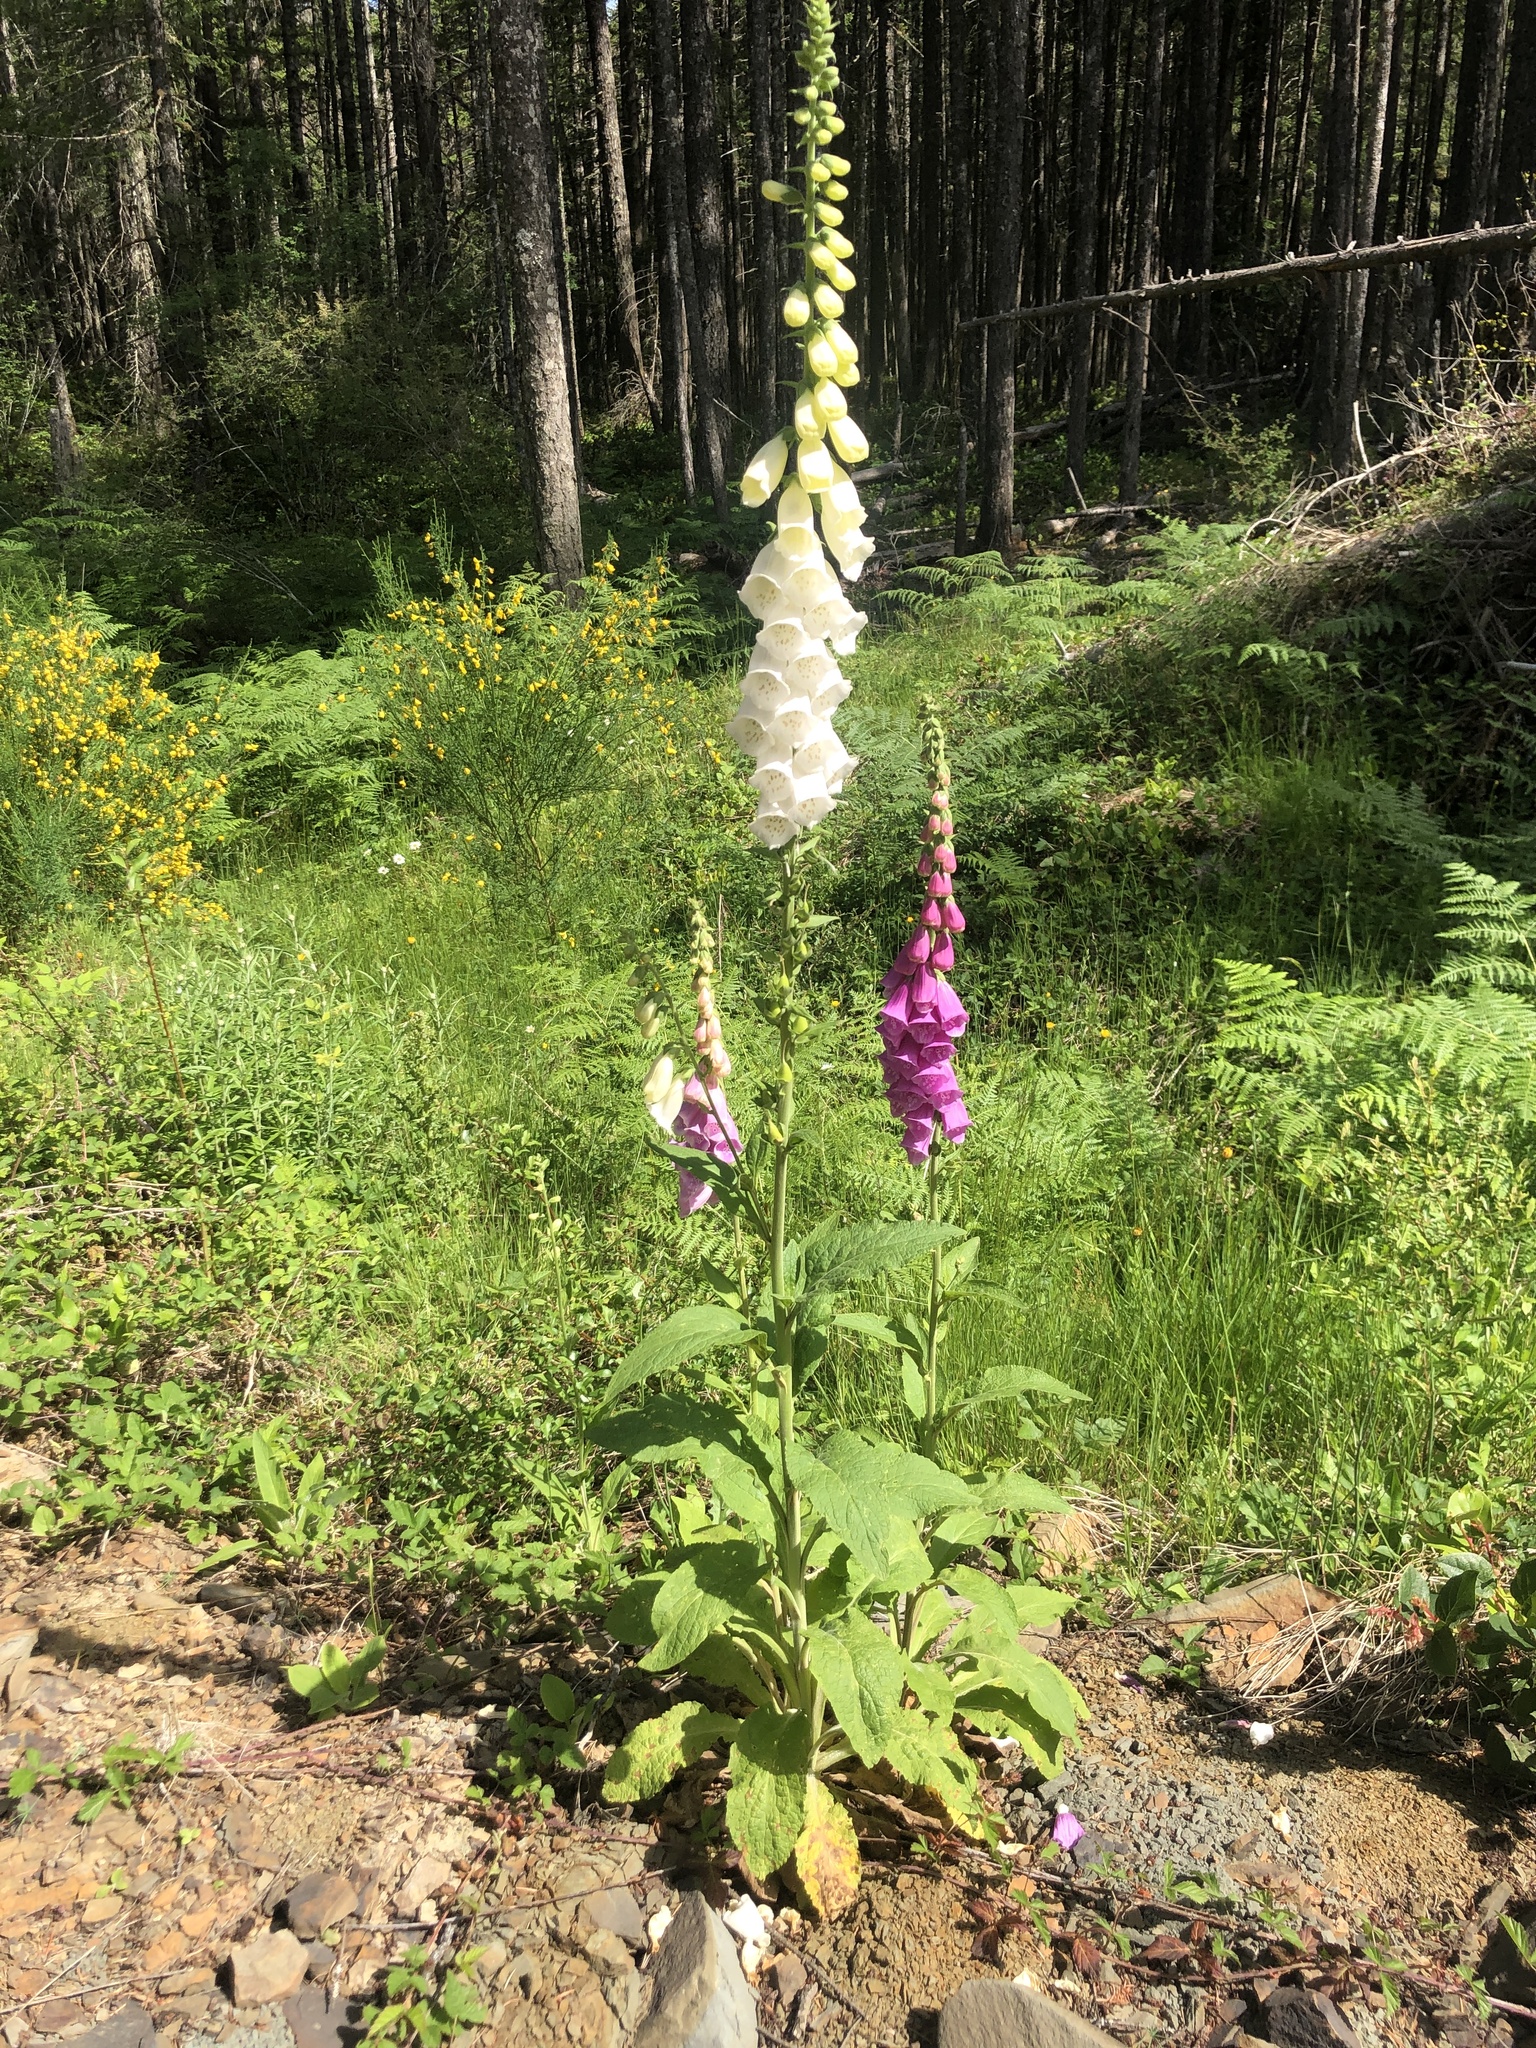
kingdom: Plantae
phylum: Tracheophyta
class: Magnoliopsida
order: Lamiales
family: Plantaginaceae
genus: Digitalis
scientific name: Digitalis purpurea
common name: Foxglove
